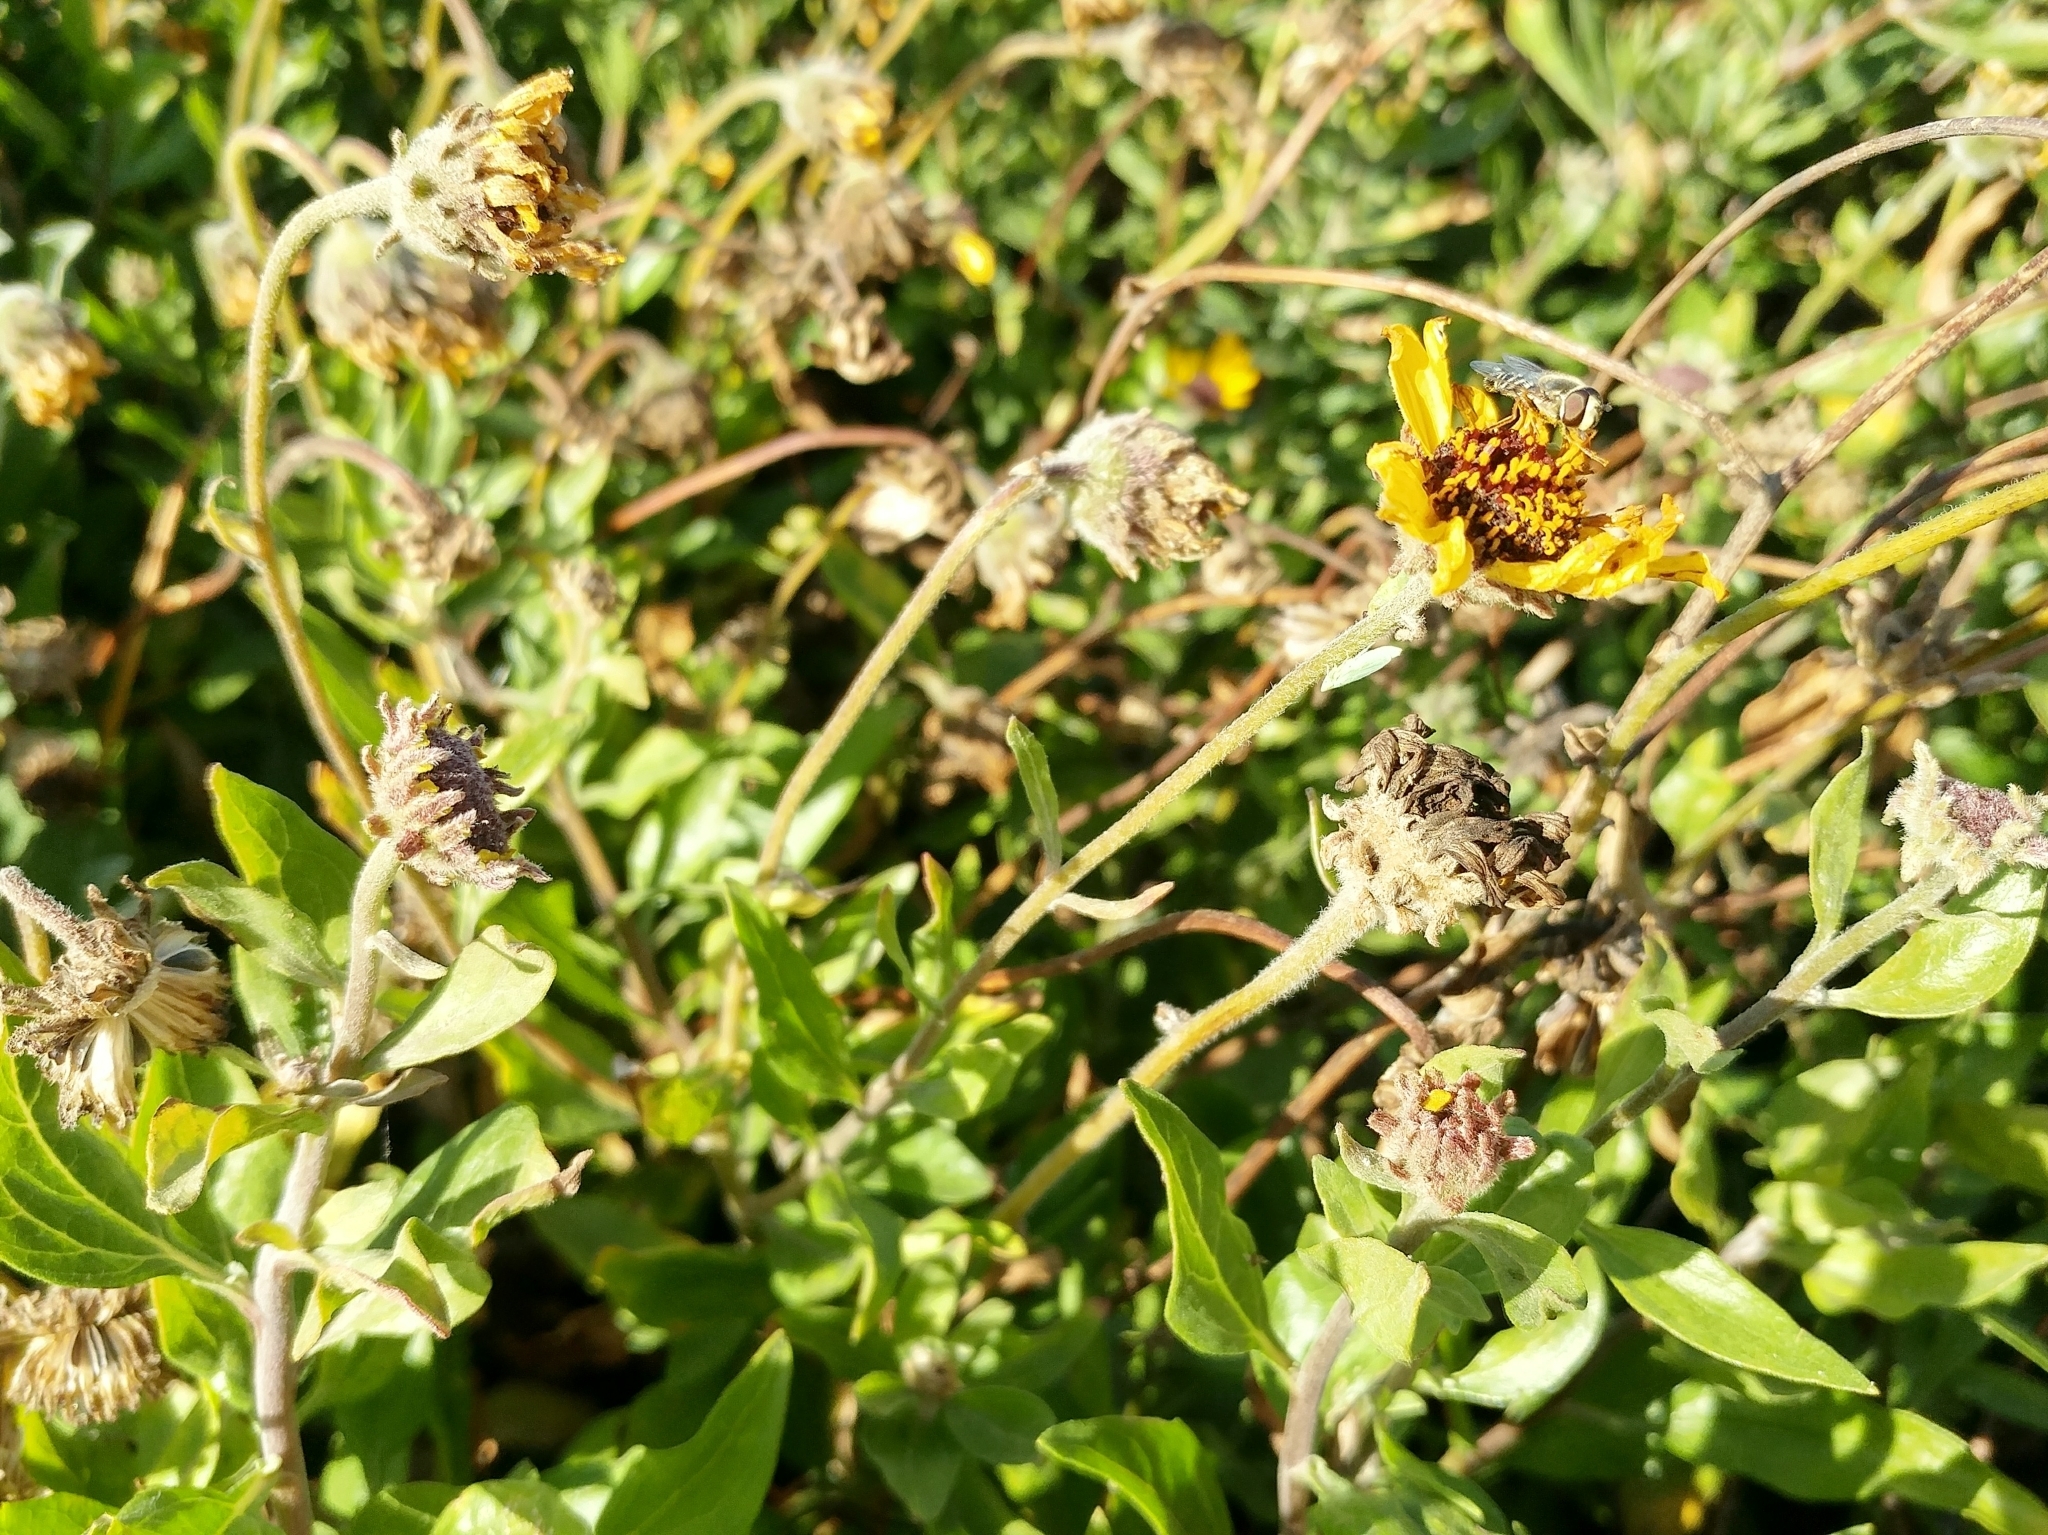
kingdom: Plantae
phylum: Tracheophyta
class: Magnoliopsida
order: Asterales
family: Asteraceae
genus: Encelia
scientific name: Encelia californica
